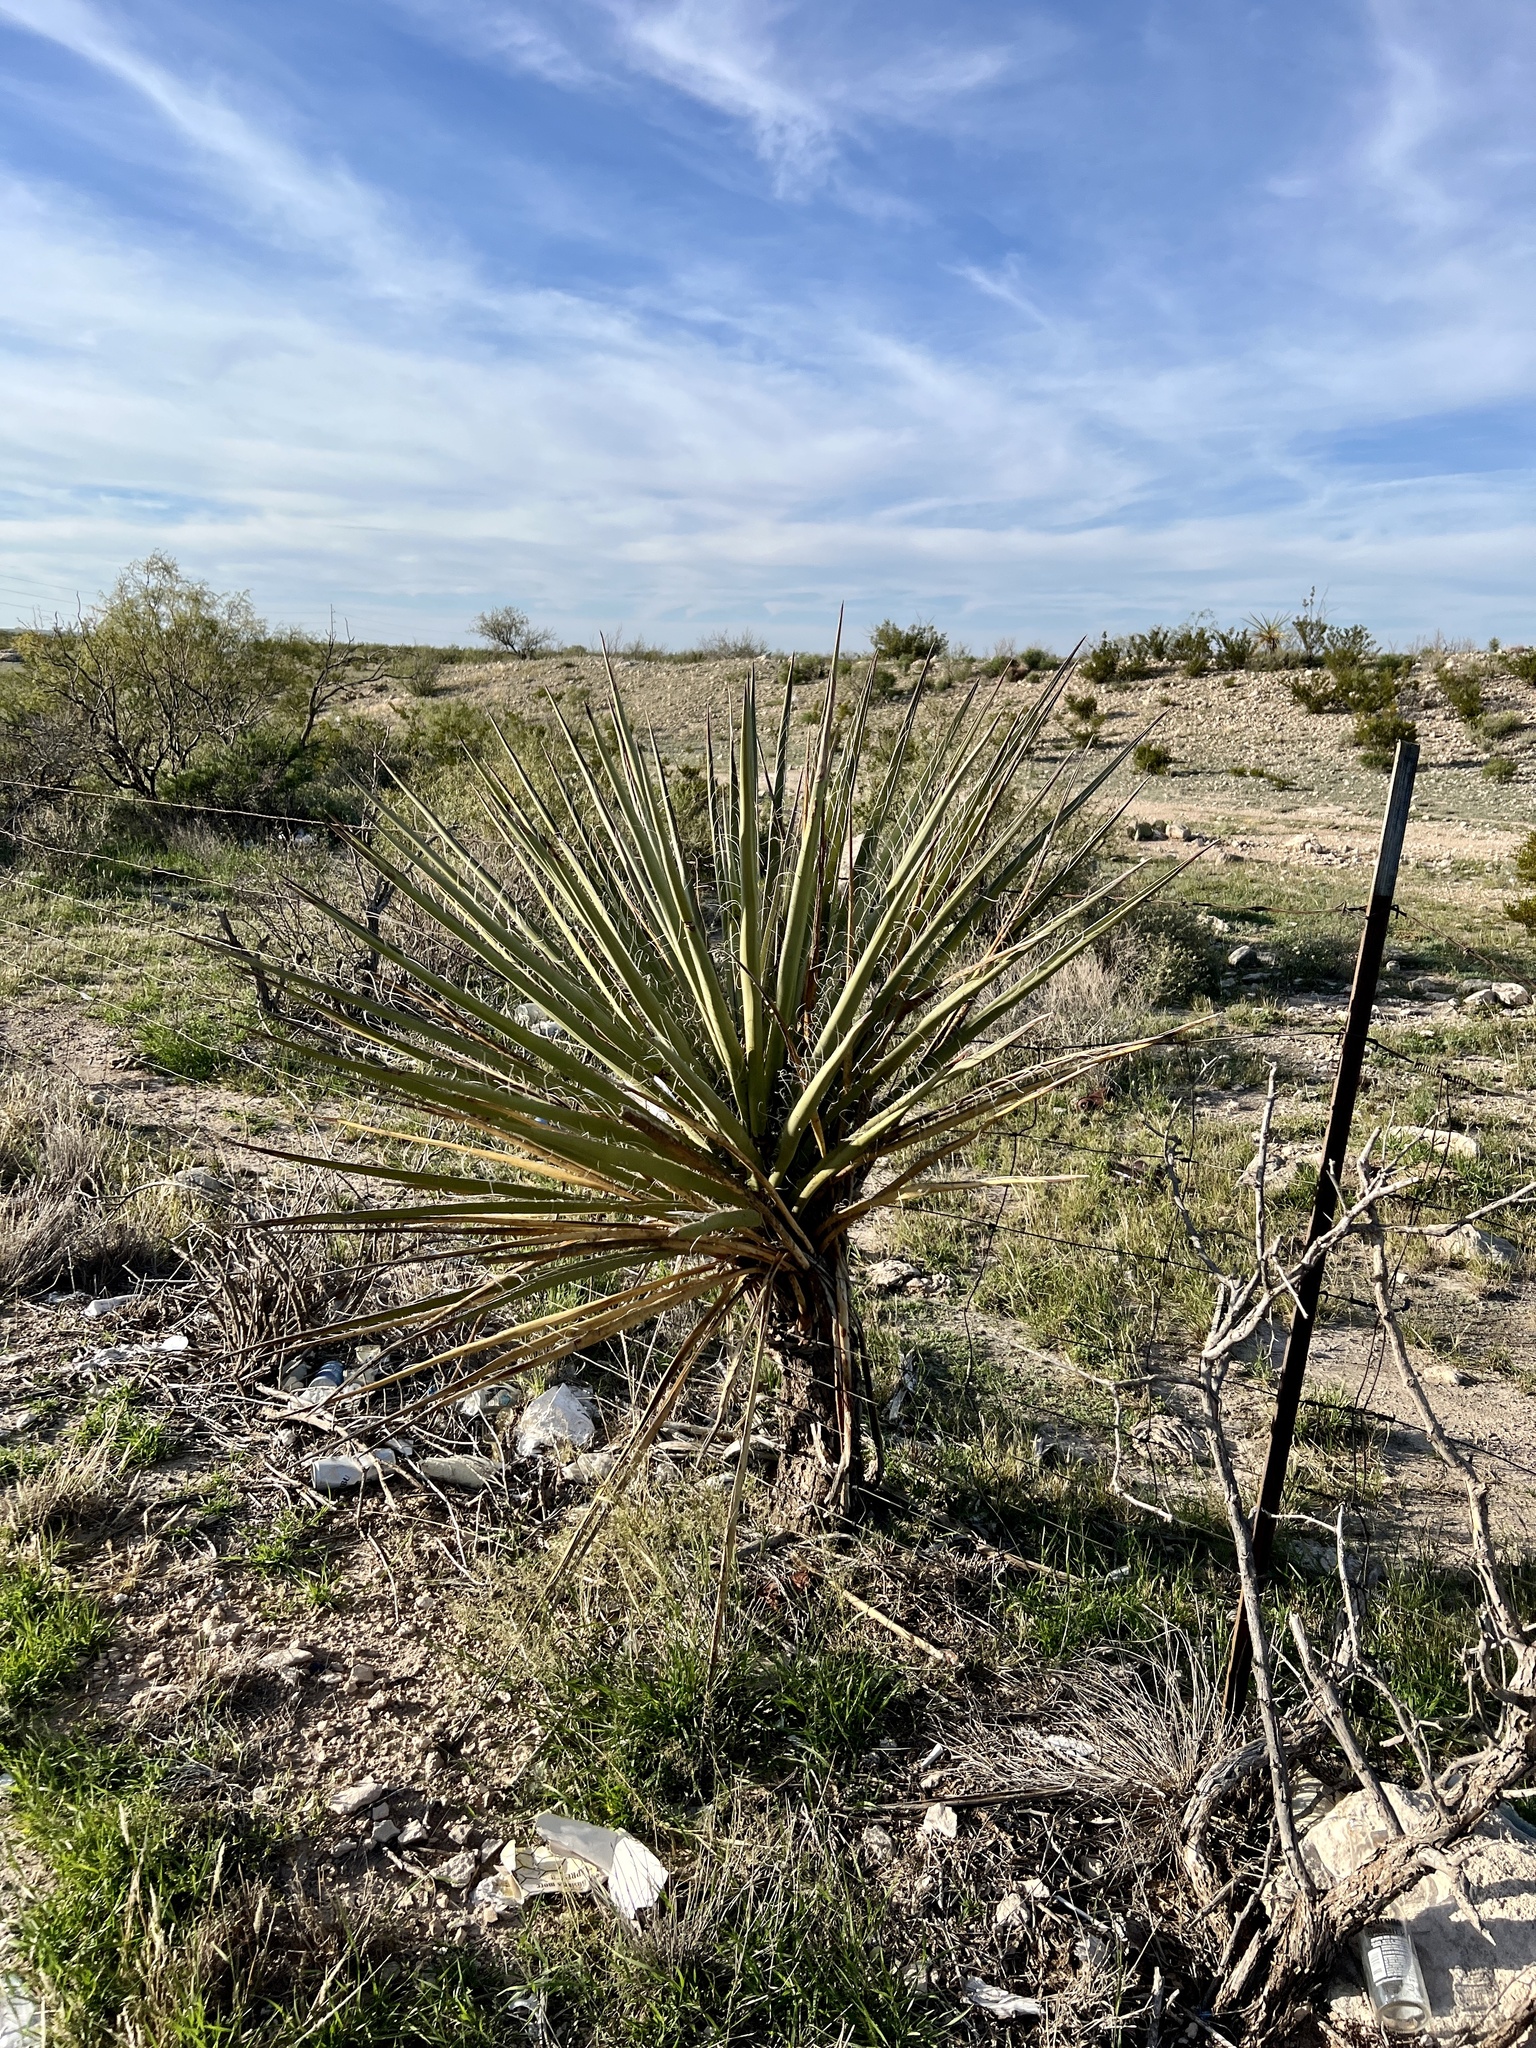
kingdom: Plantae
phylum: Tracheophyta
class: Liliopsida
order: Asparagales
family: Asparagaceae
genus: Yucca
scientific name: Yucca treculiana
